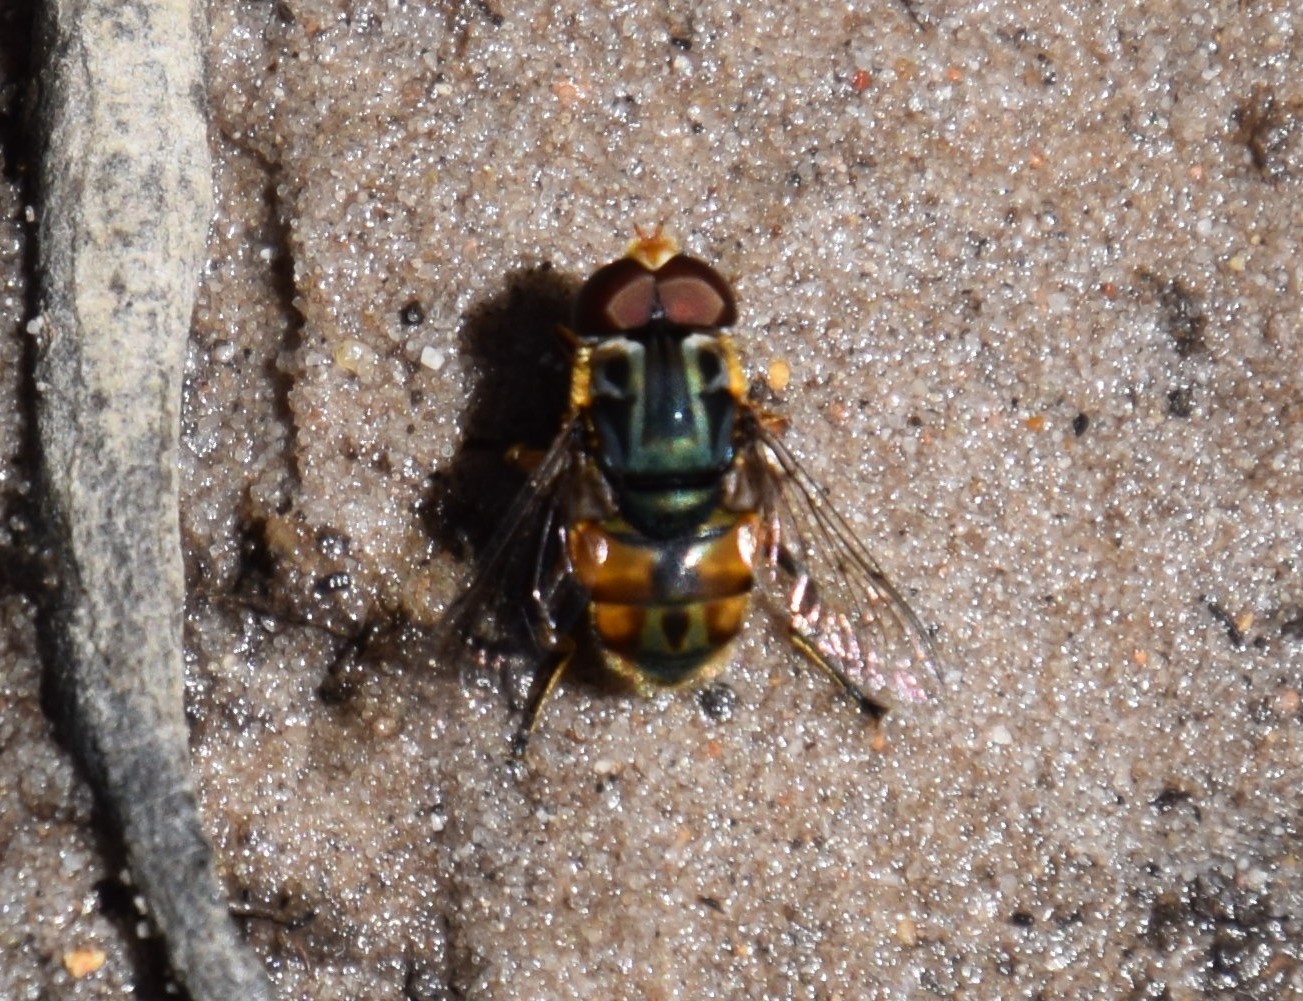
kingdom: Animalia
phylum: Arthropoda
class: Insecta
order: Diptera
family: Syrphidae
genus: Austalis
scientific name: Austalis copiosa
